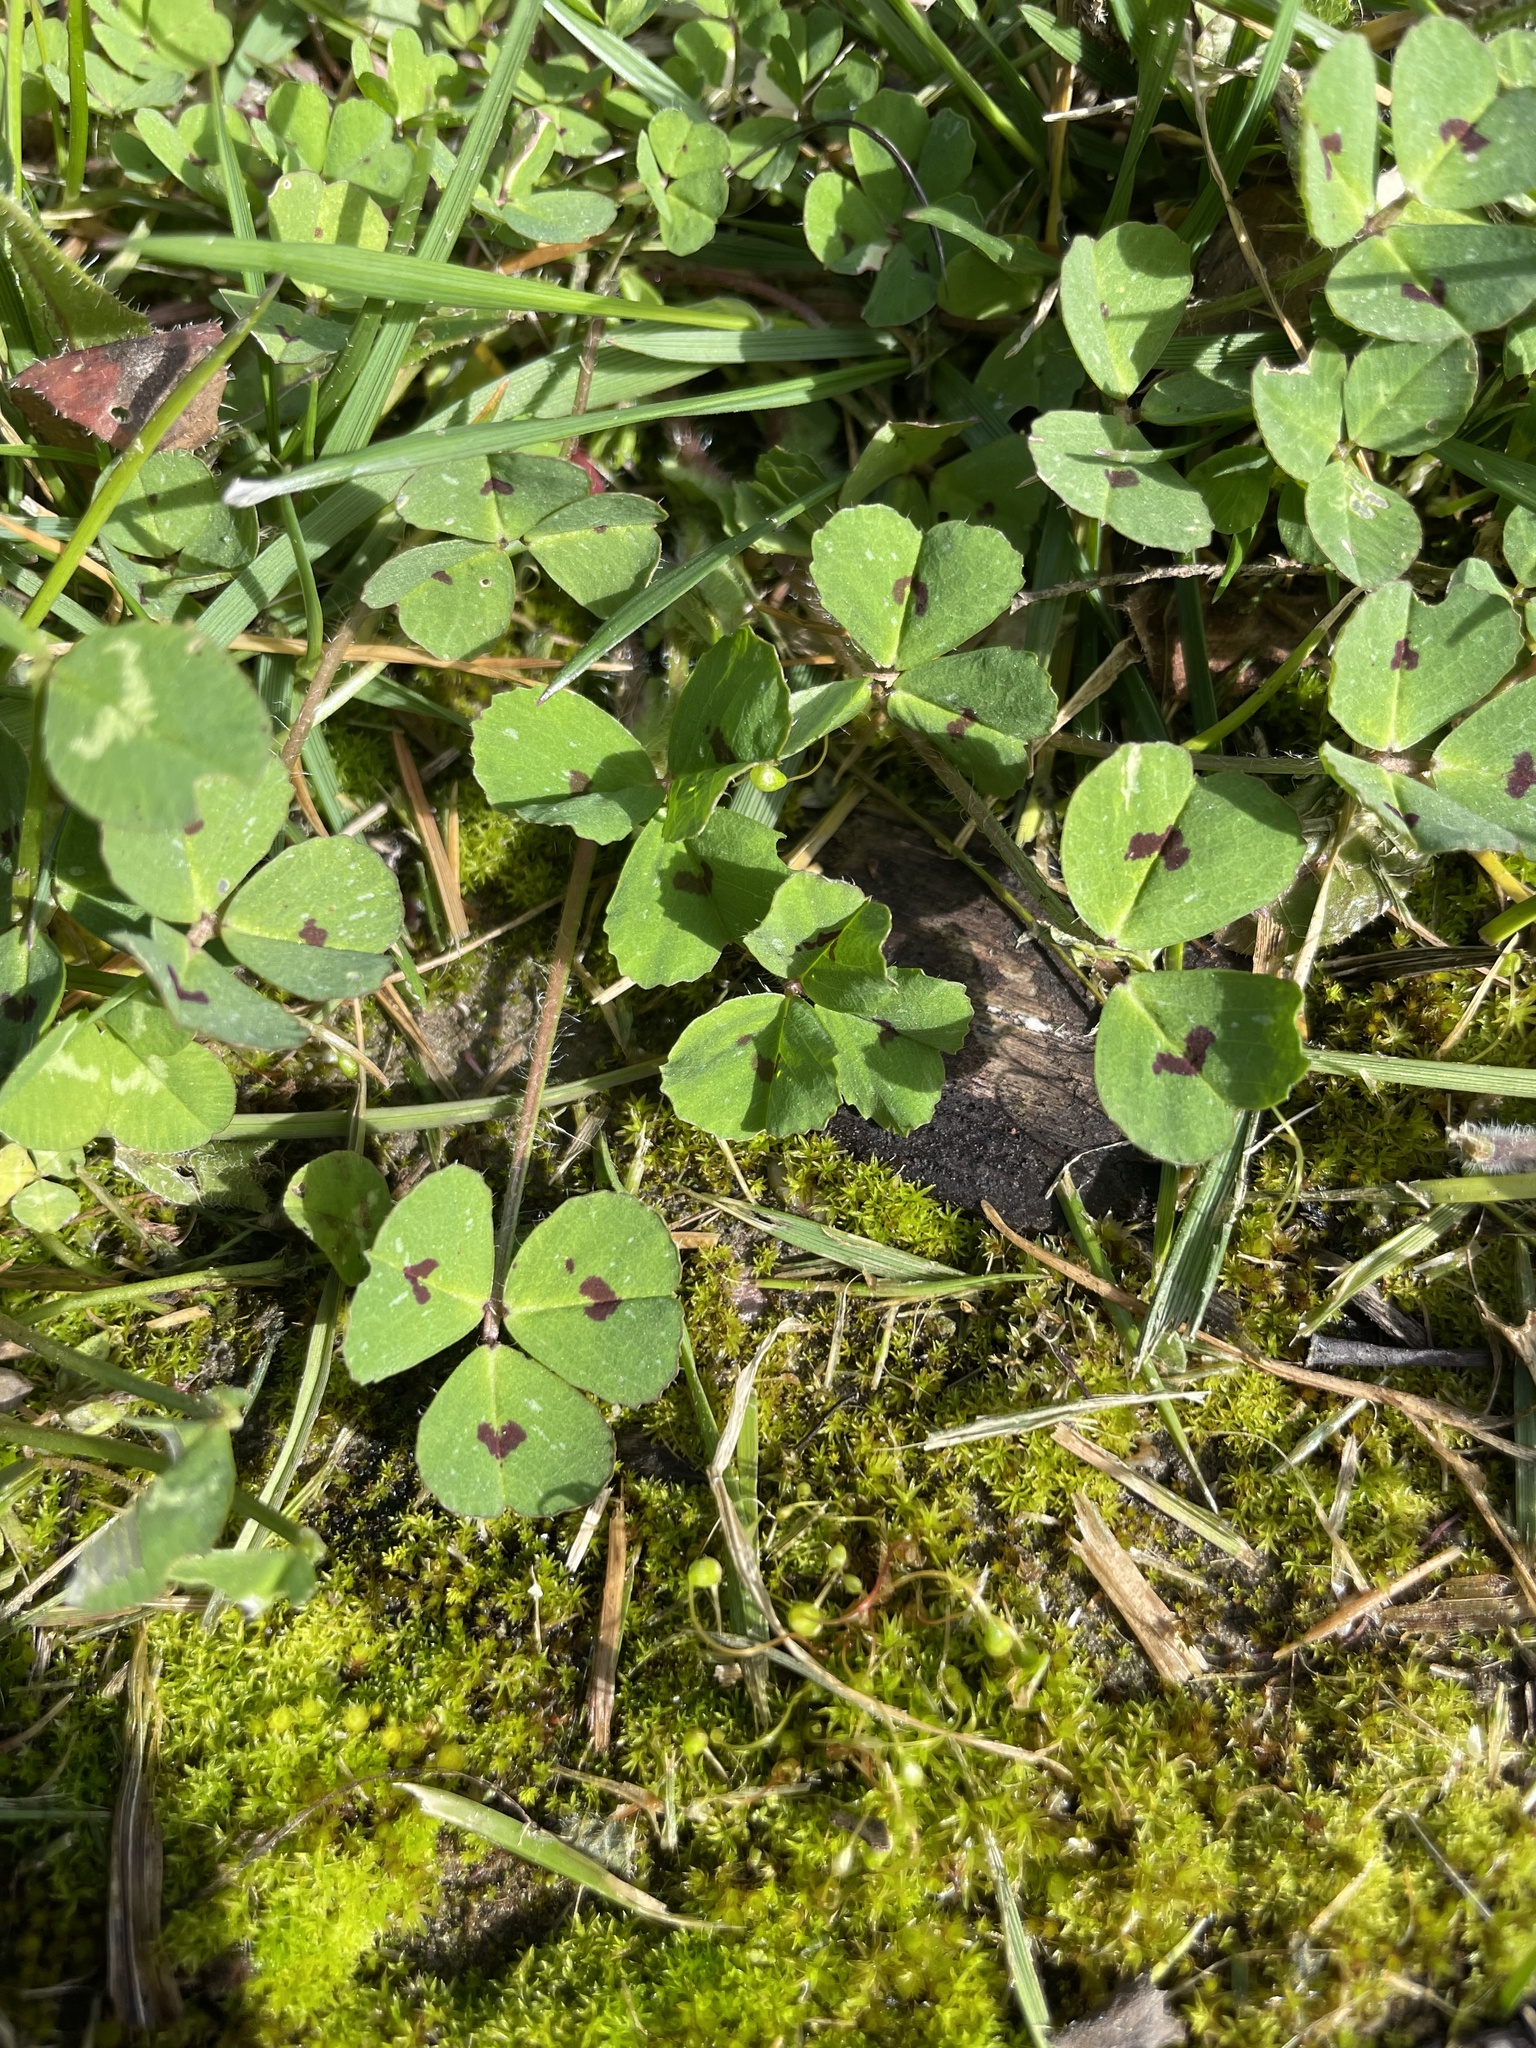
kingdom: Plantae
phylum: Tracheophyta
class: Magnoliopsida
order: Fabales
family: Fabaceae
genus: Medicago
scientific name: Medicago arabica
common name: Spotted medick
